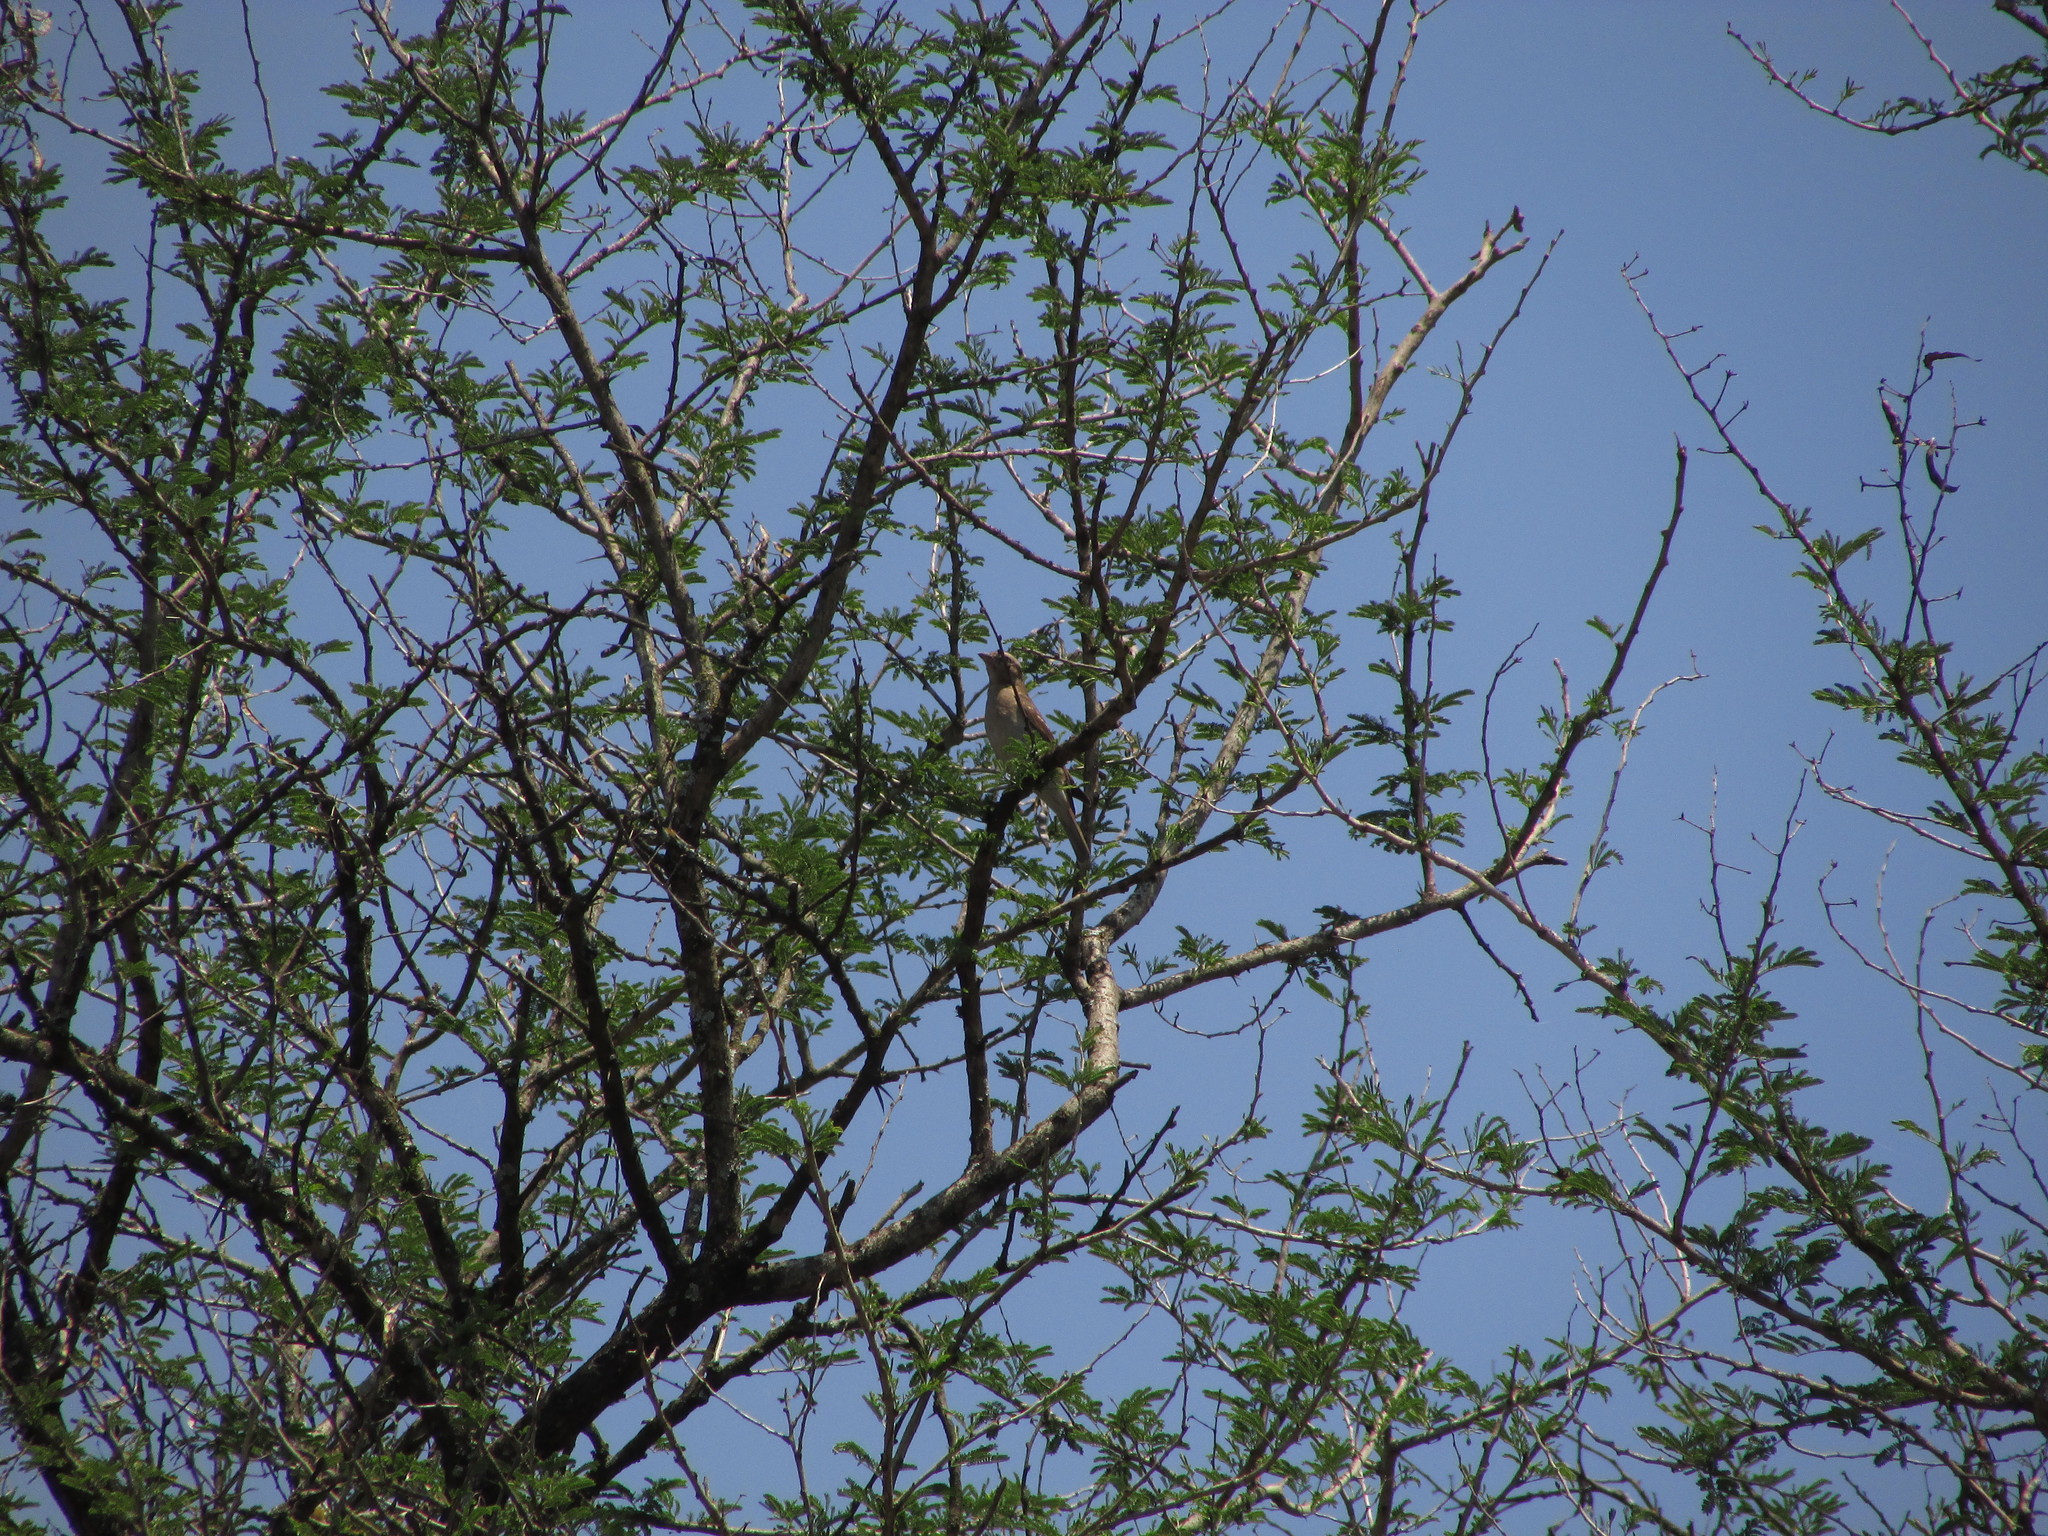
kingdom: Animalia
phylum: Chordata
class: Aves
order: Passeriformes
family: Passeridae
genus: Gymnoris
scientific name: Gymnoris superciliaris
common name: Yellow-throated petronia
